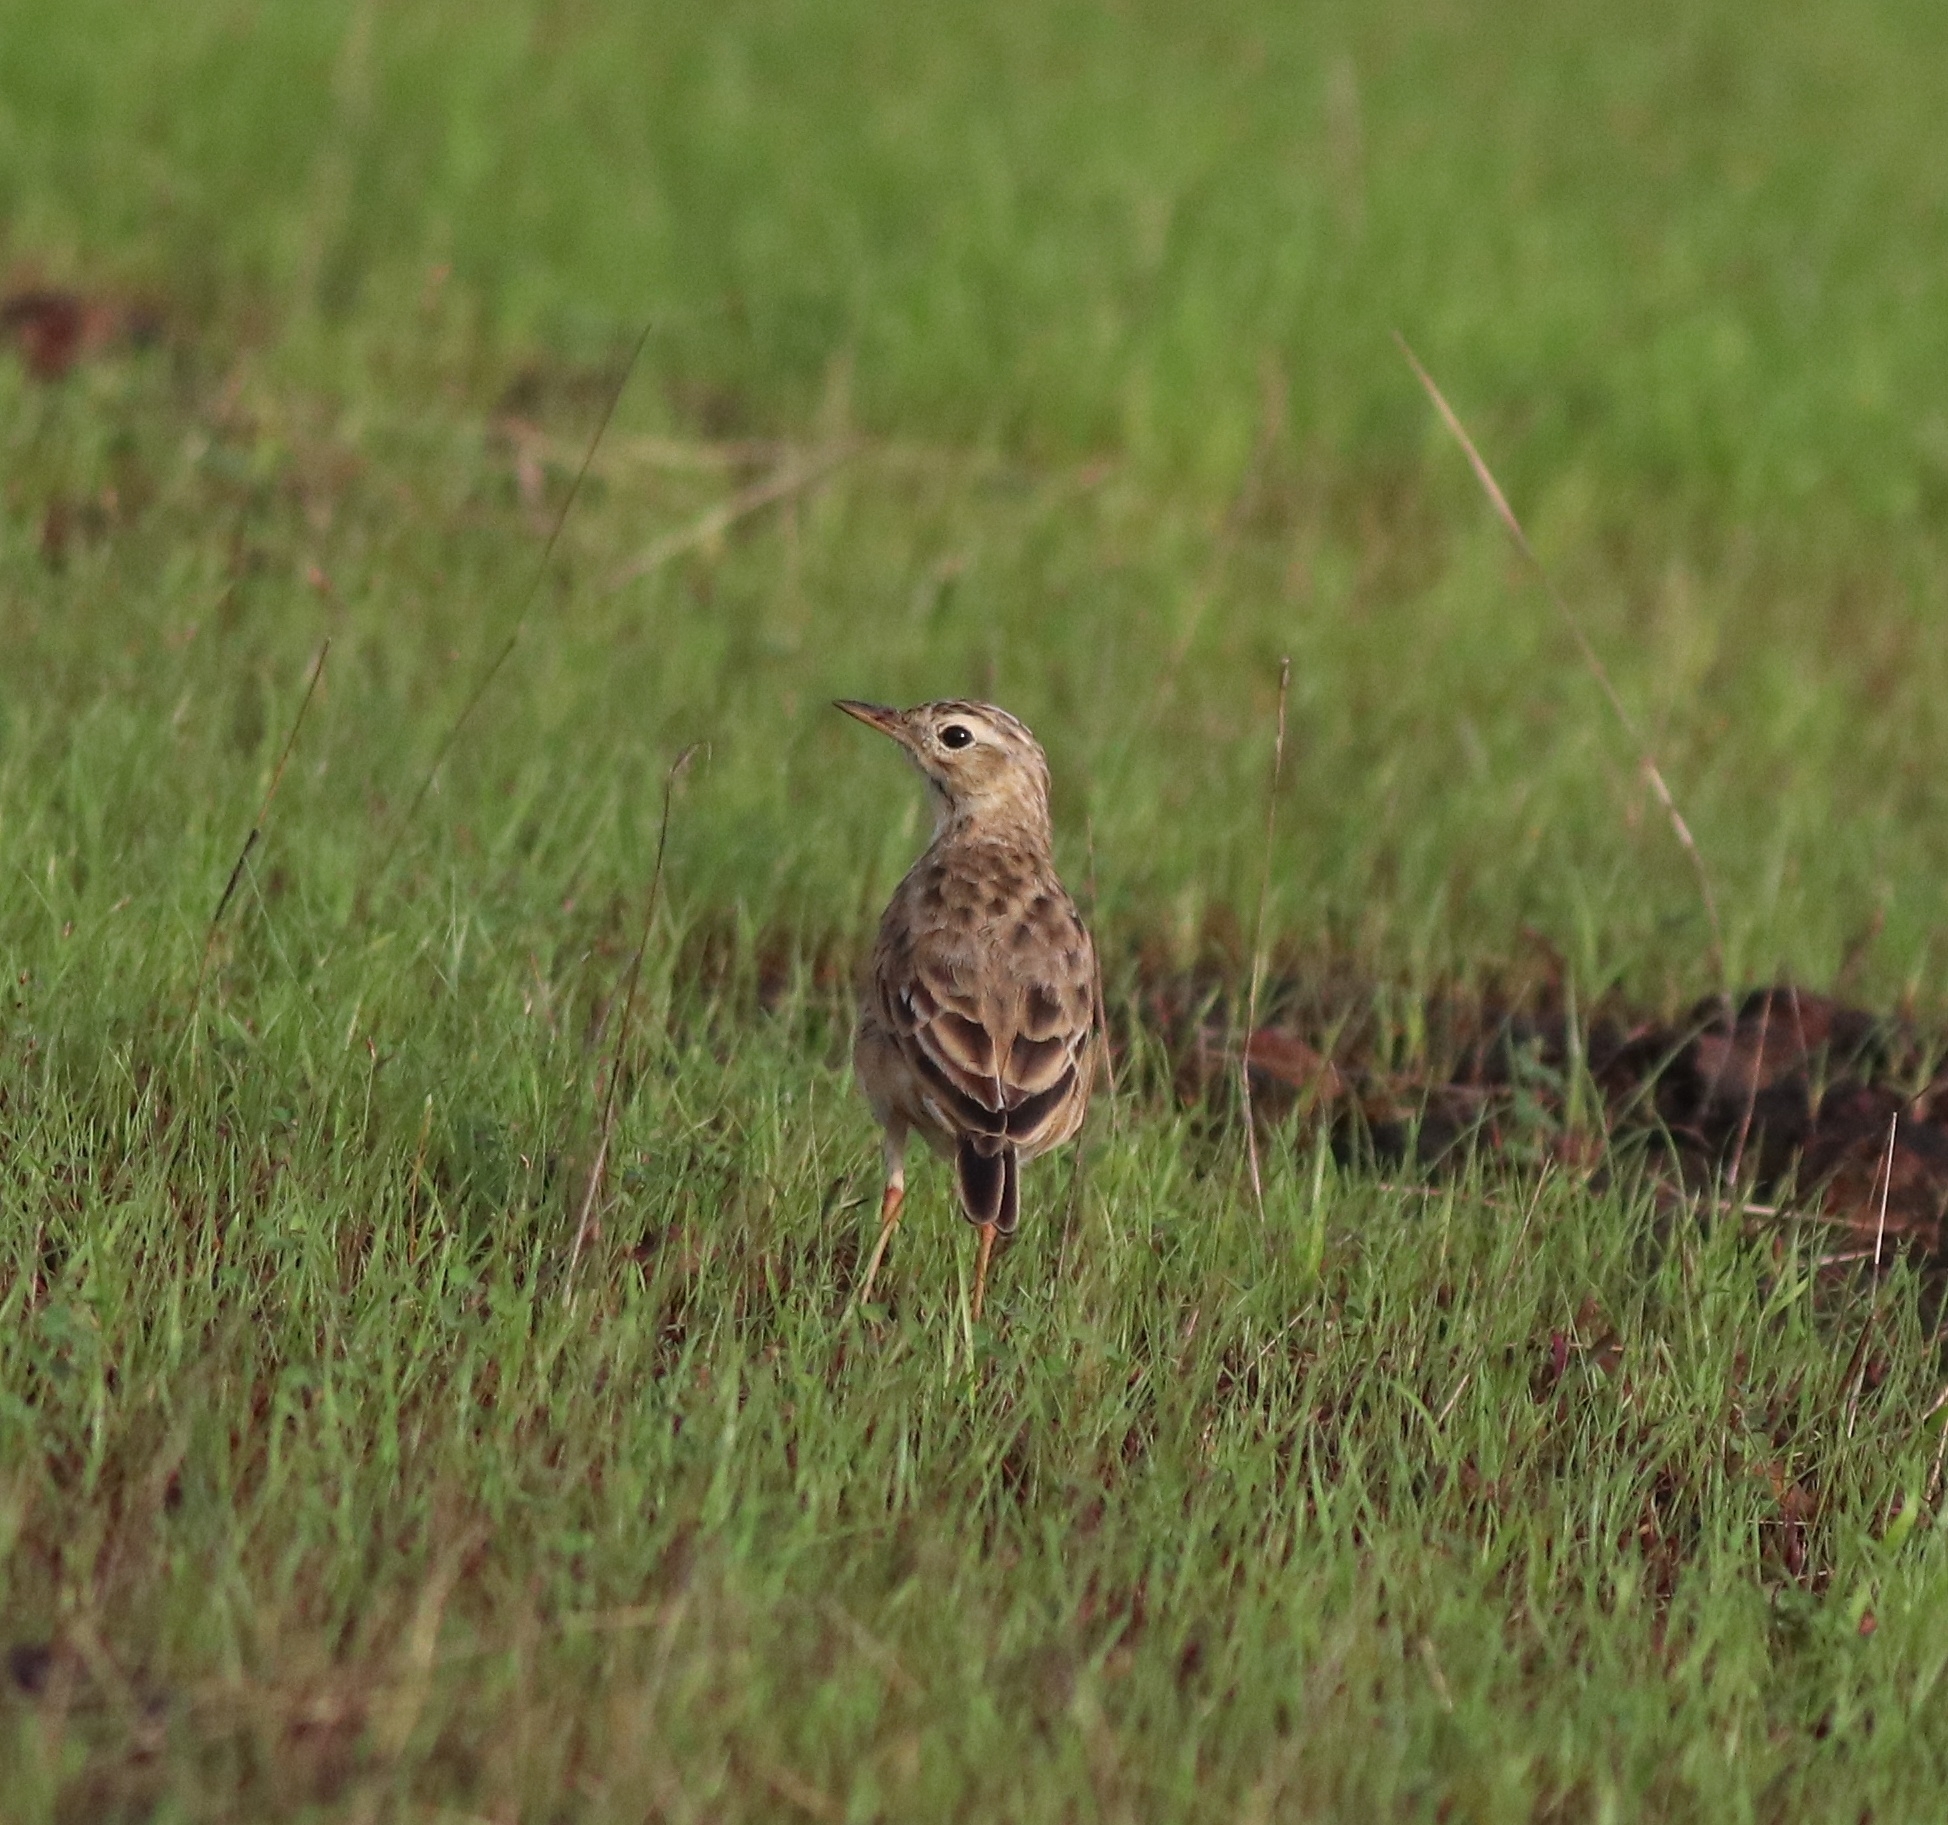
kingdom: Animalia
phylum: Chordata
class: Aves
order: Passeriformes
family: Motacillidae
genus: Anthus
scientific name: Anthus rufulus
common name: Paddyfield pipit
